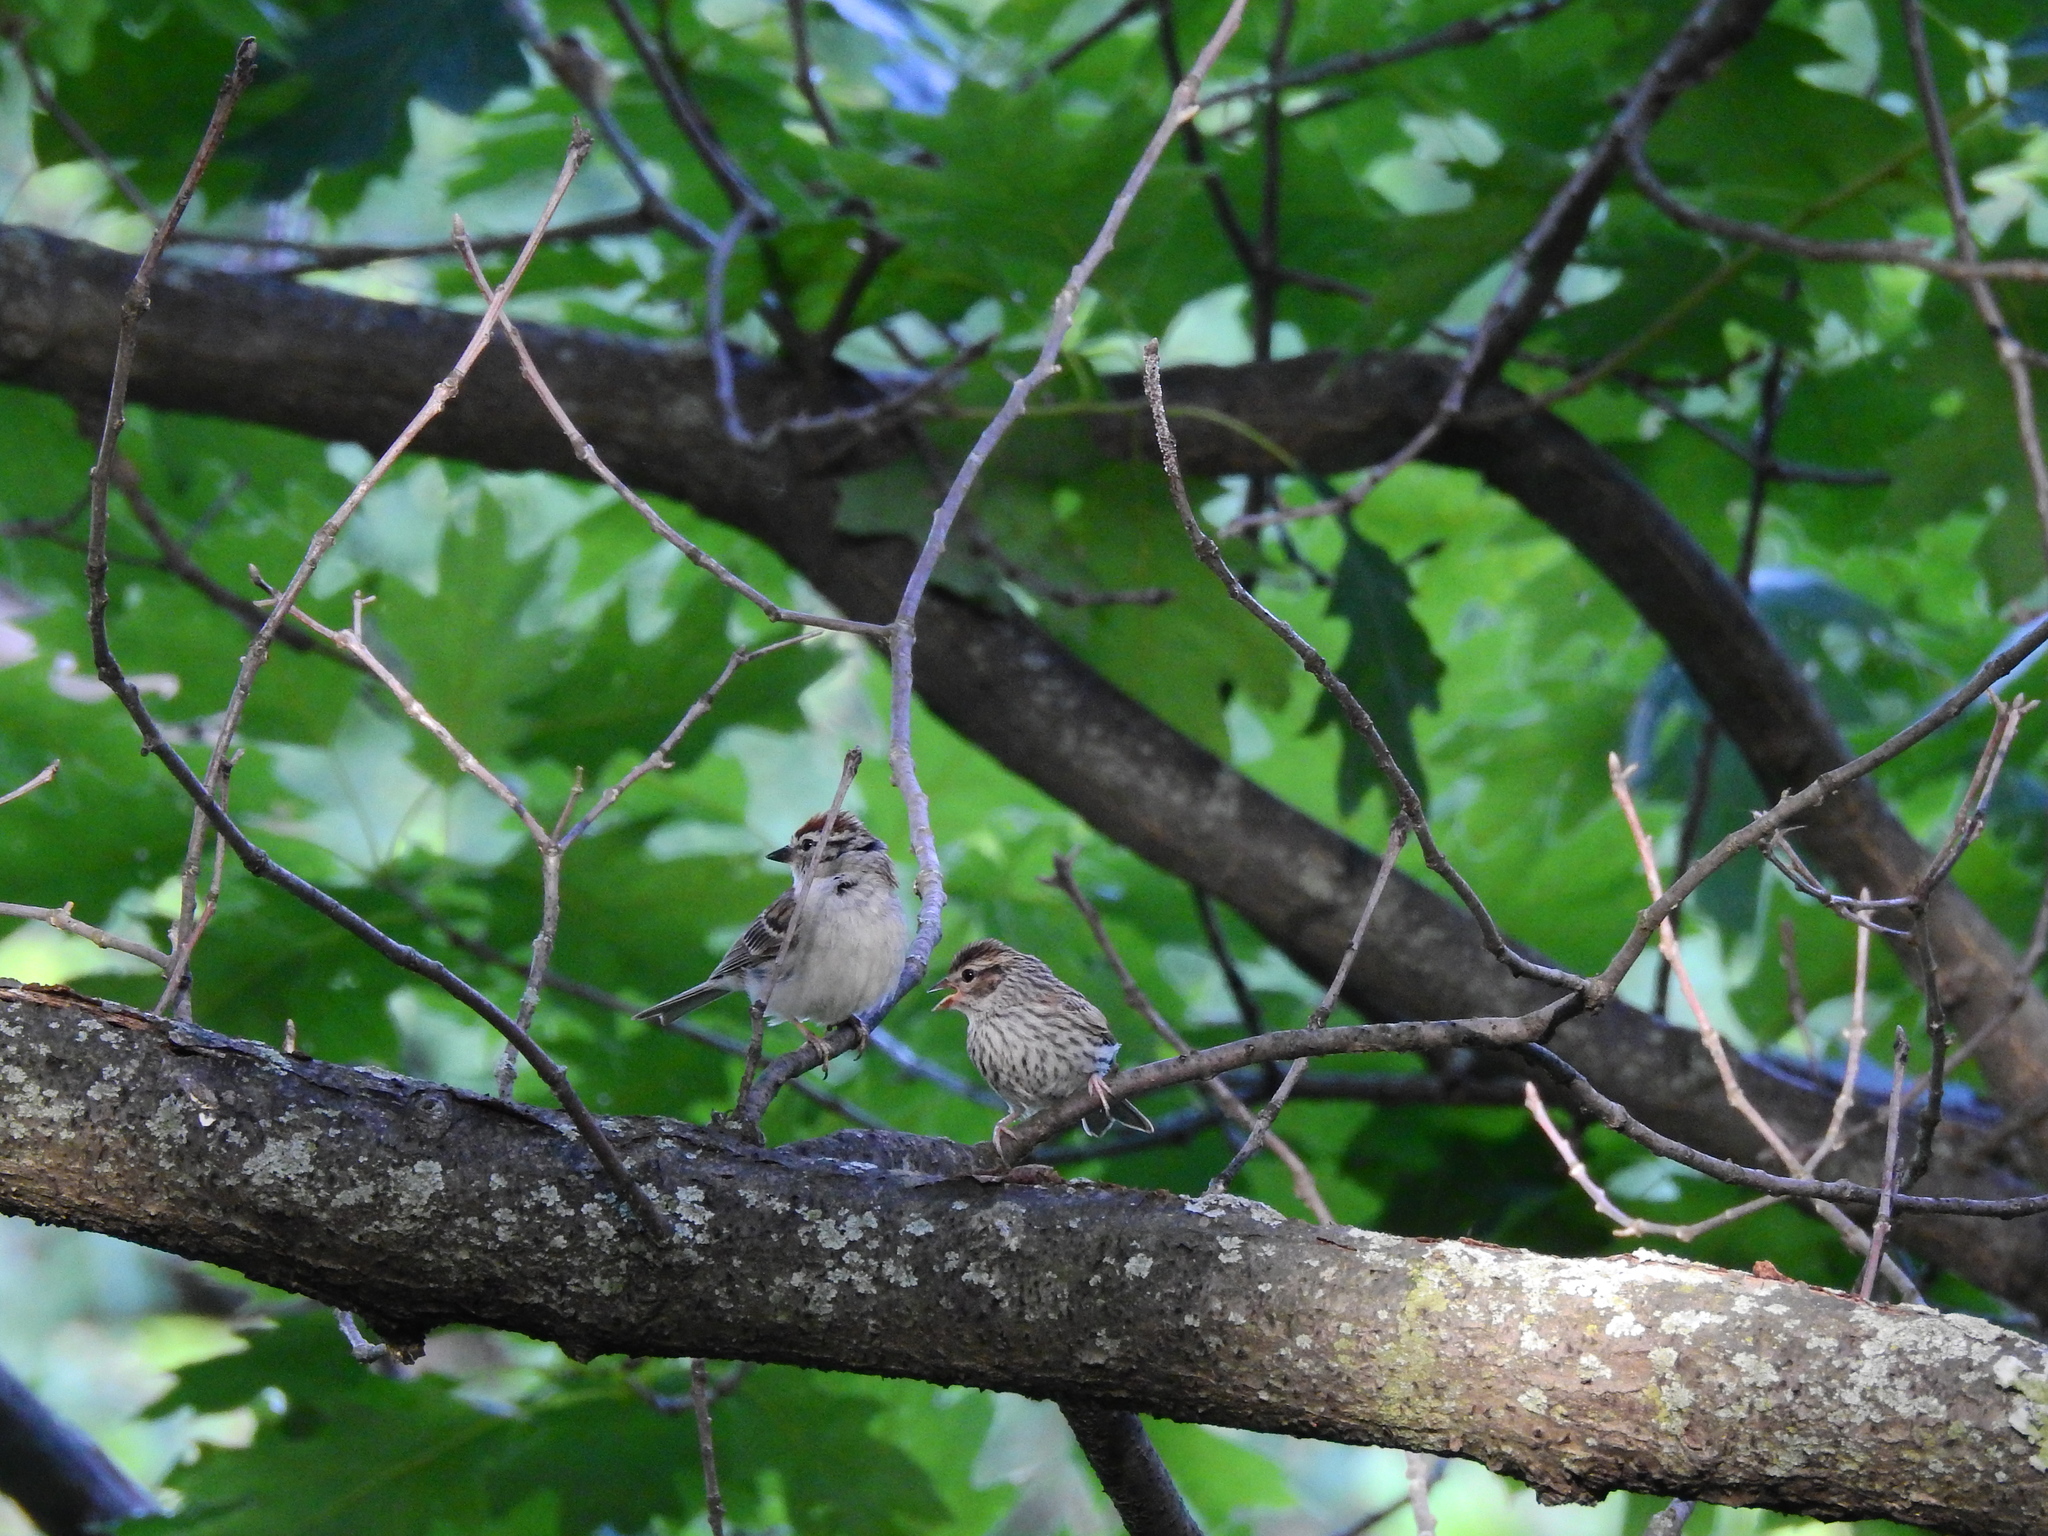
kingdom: Animalia
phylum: Chordata
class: Aves
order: Passeriformes
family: Passerellidae
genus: Spizella
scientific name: Spizella passerina
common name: Chipping sparrow
